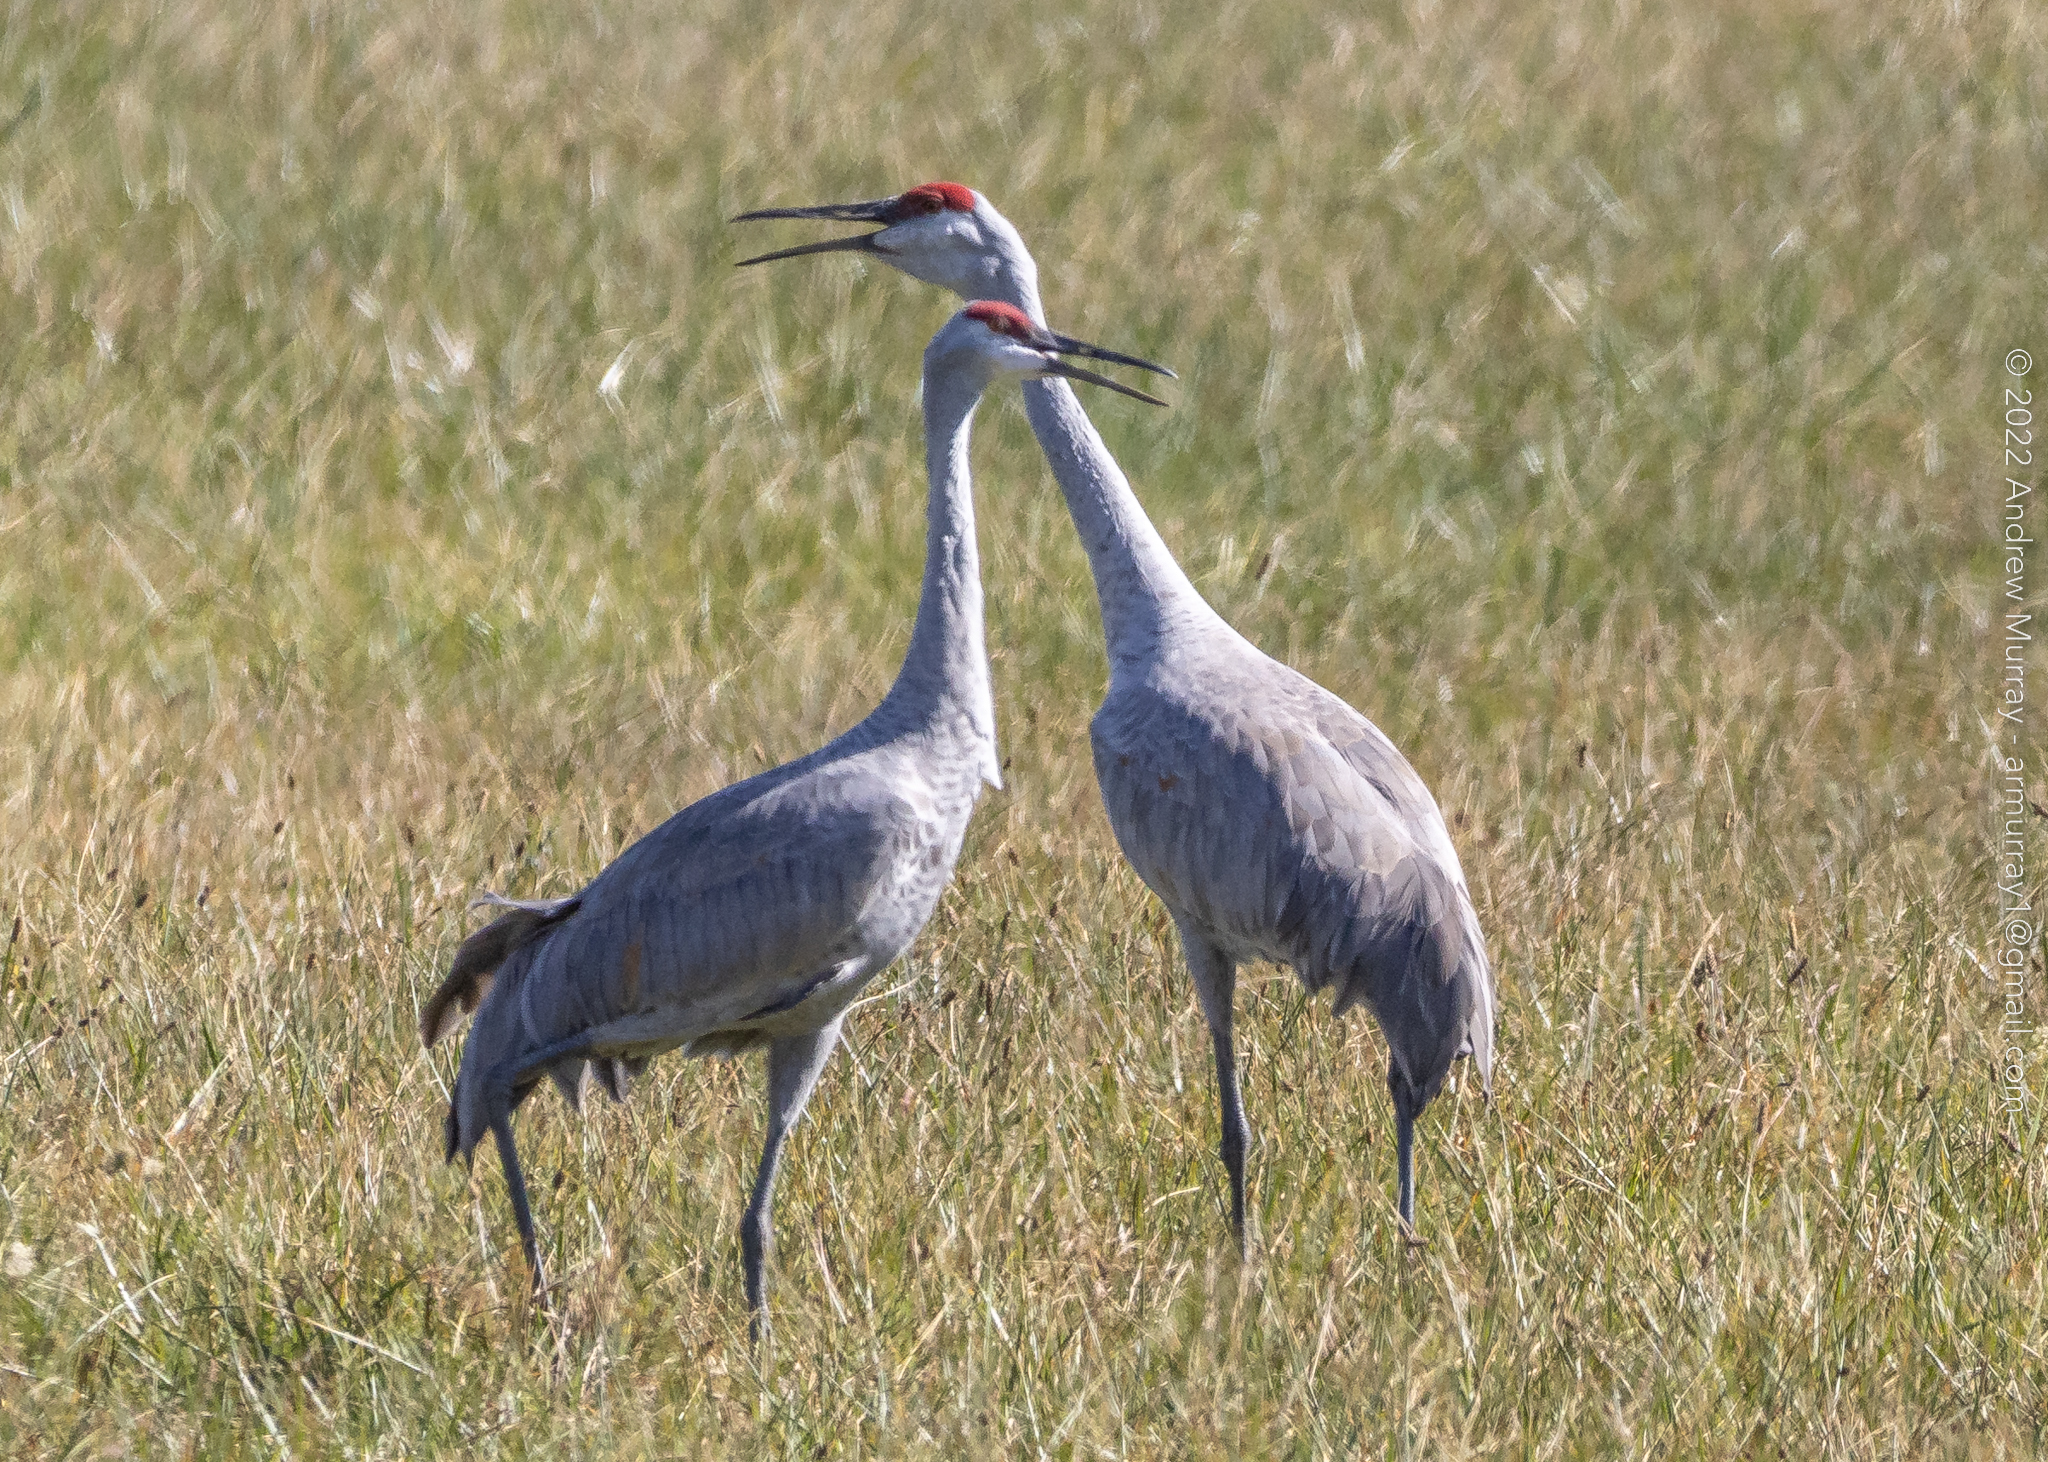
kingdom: Animalia
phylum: Chordata
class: Aves
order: Gruiformes
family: Gruidae
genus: Grus
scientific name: Grus canadensis
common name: Sandhill crane
